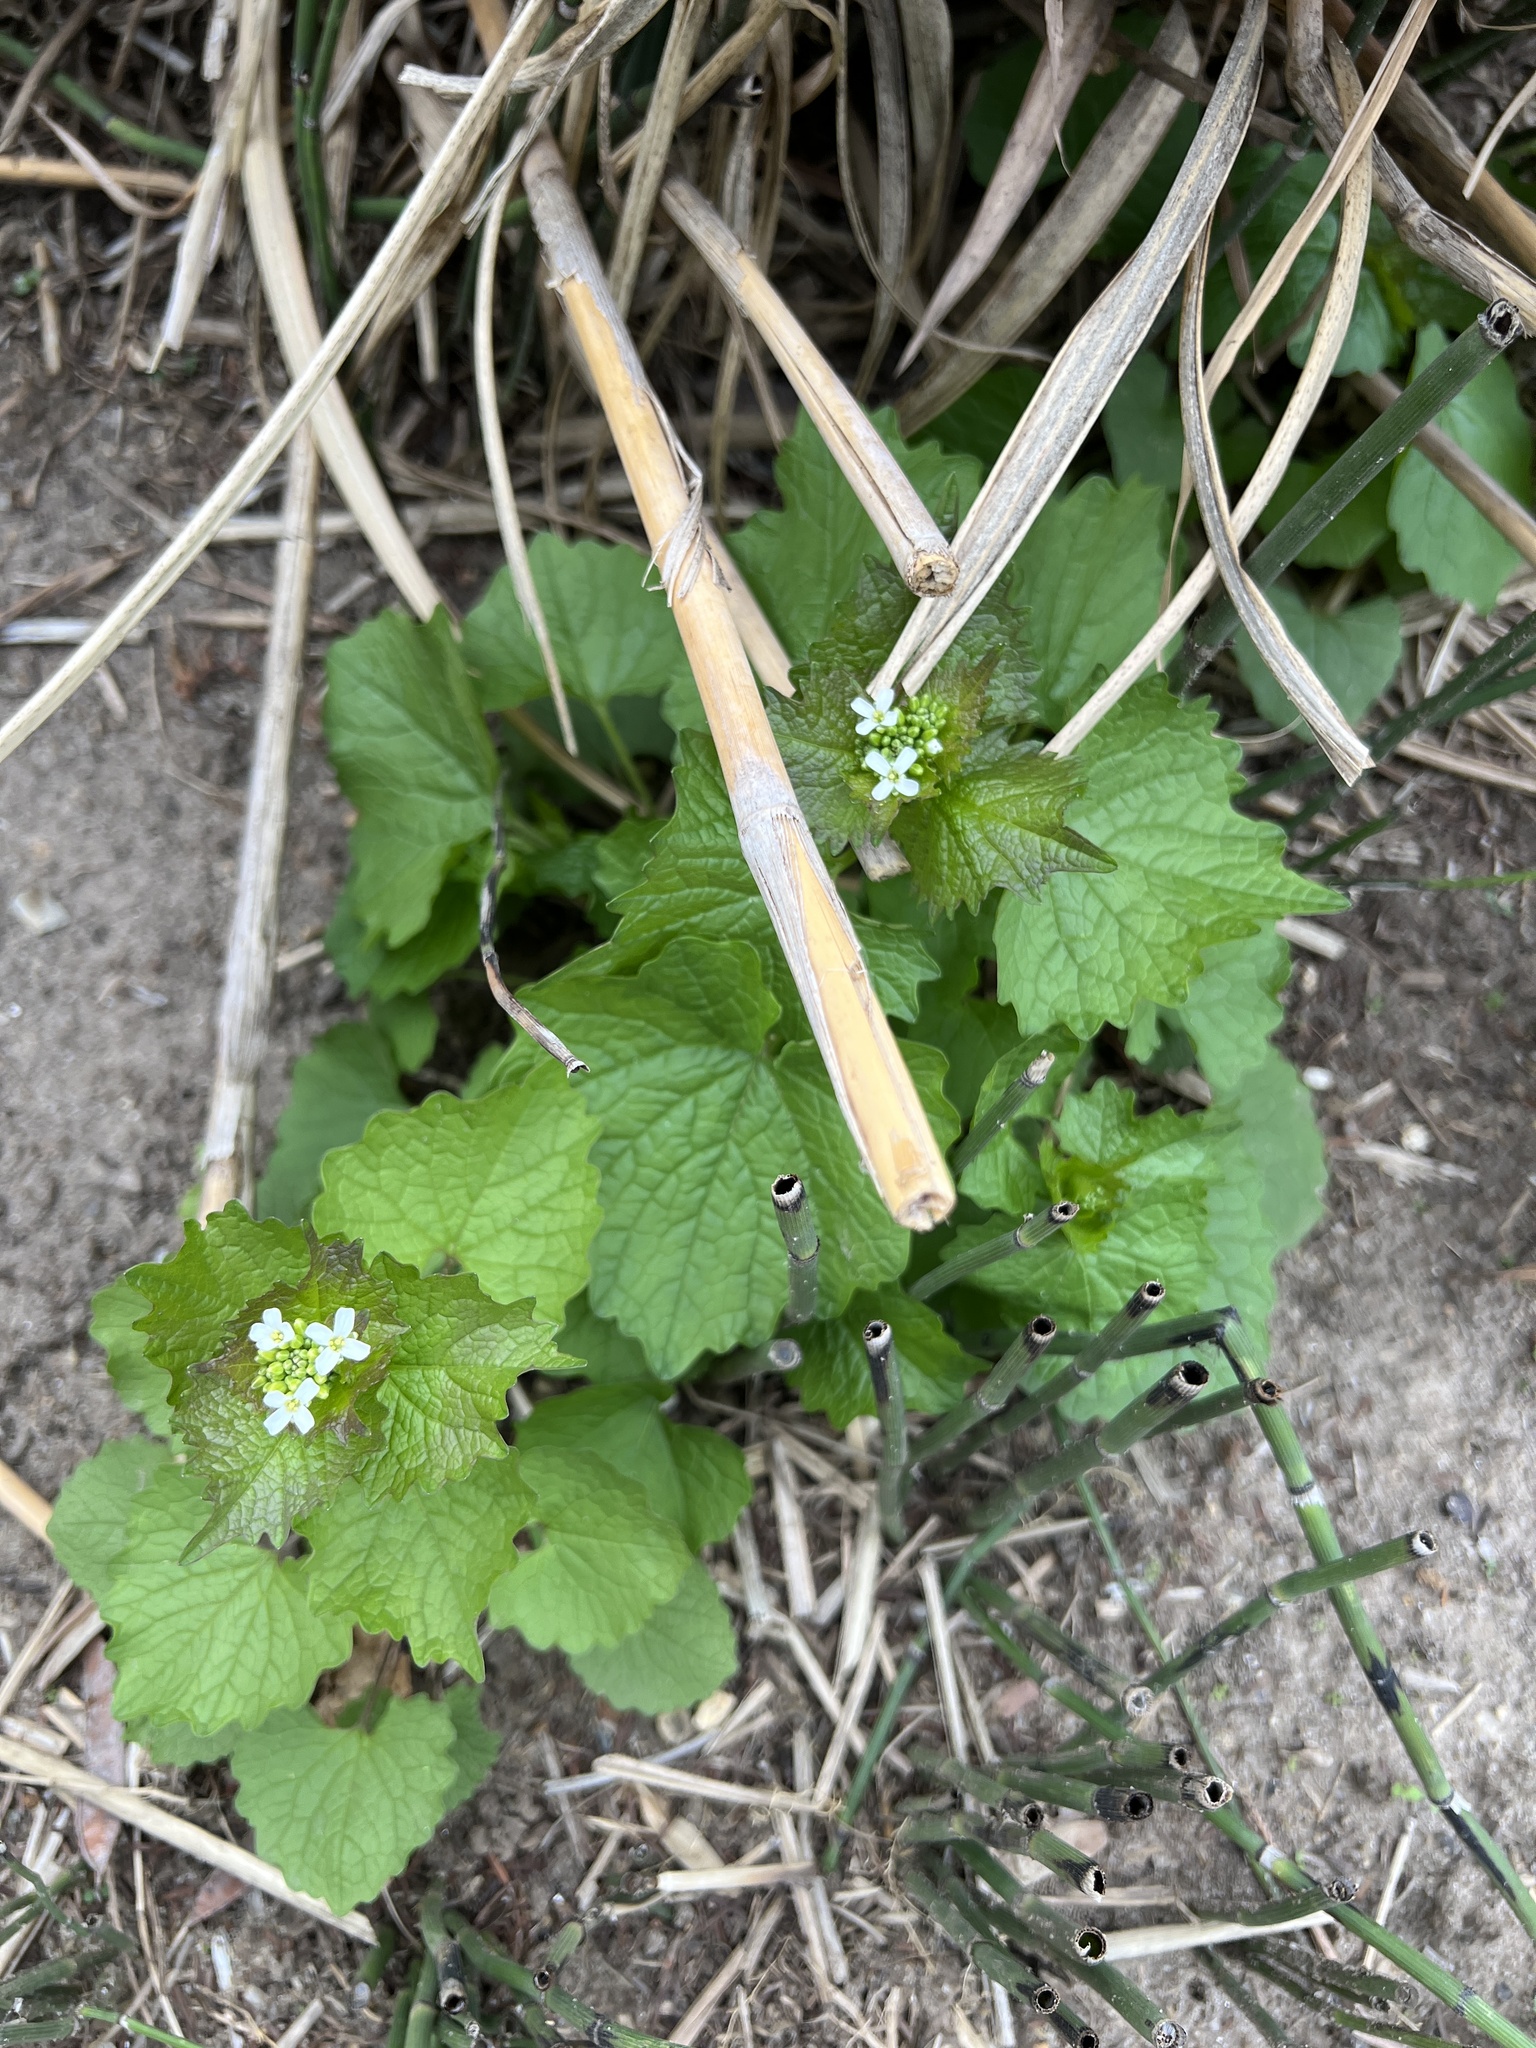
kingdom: Plantae
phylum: Tracheophyta
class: Magnoliopsida
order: Brassicales
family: Brassicaceae
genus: Alliaria
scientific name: Alliaria petiolata
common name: Garlic mustard
